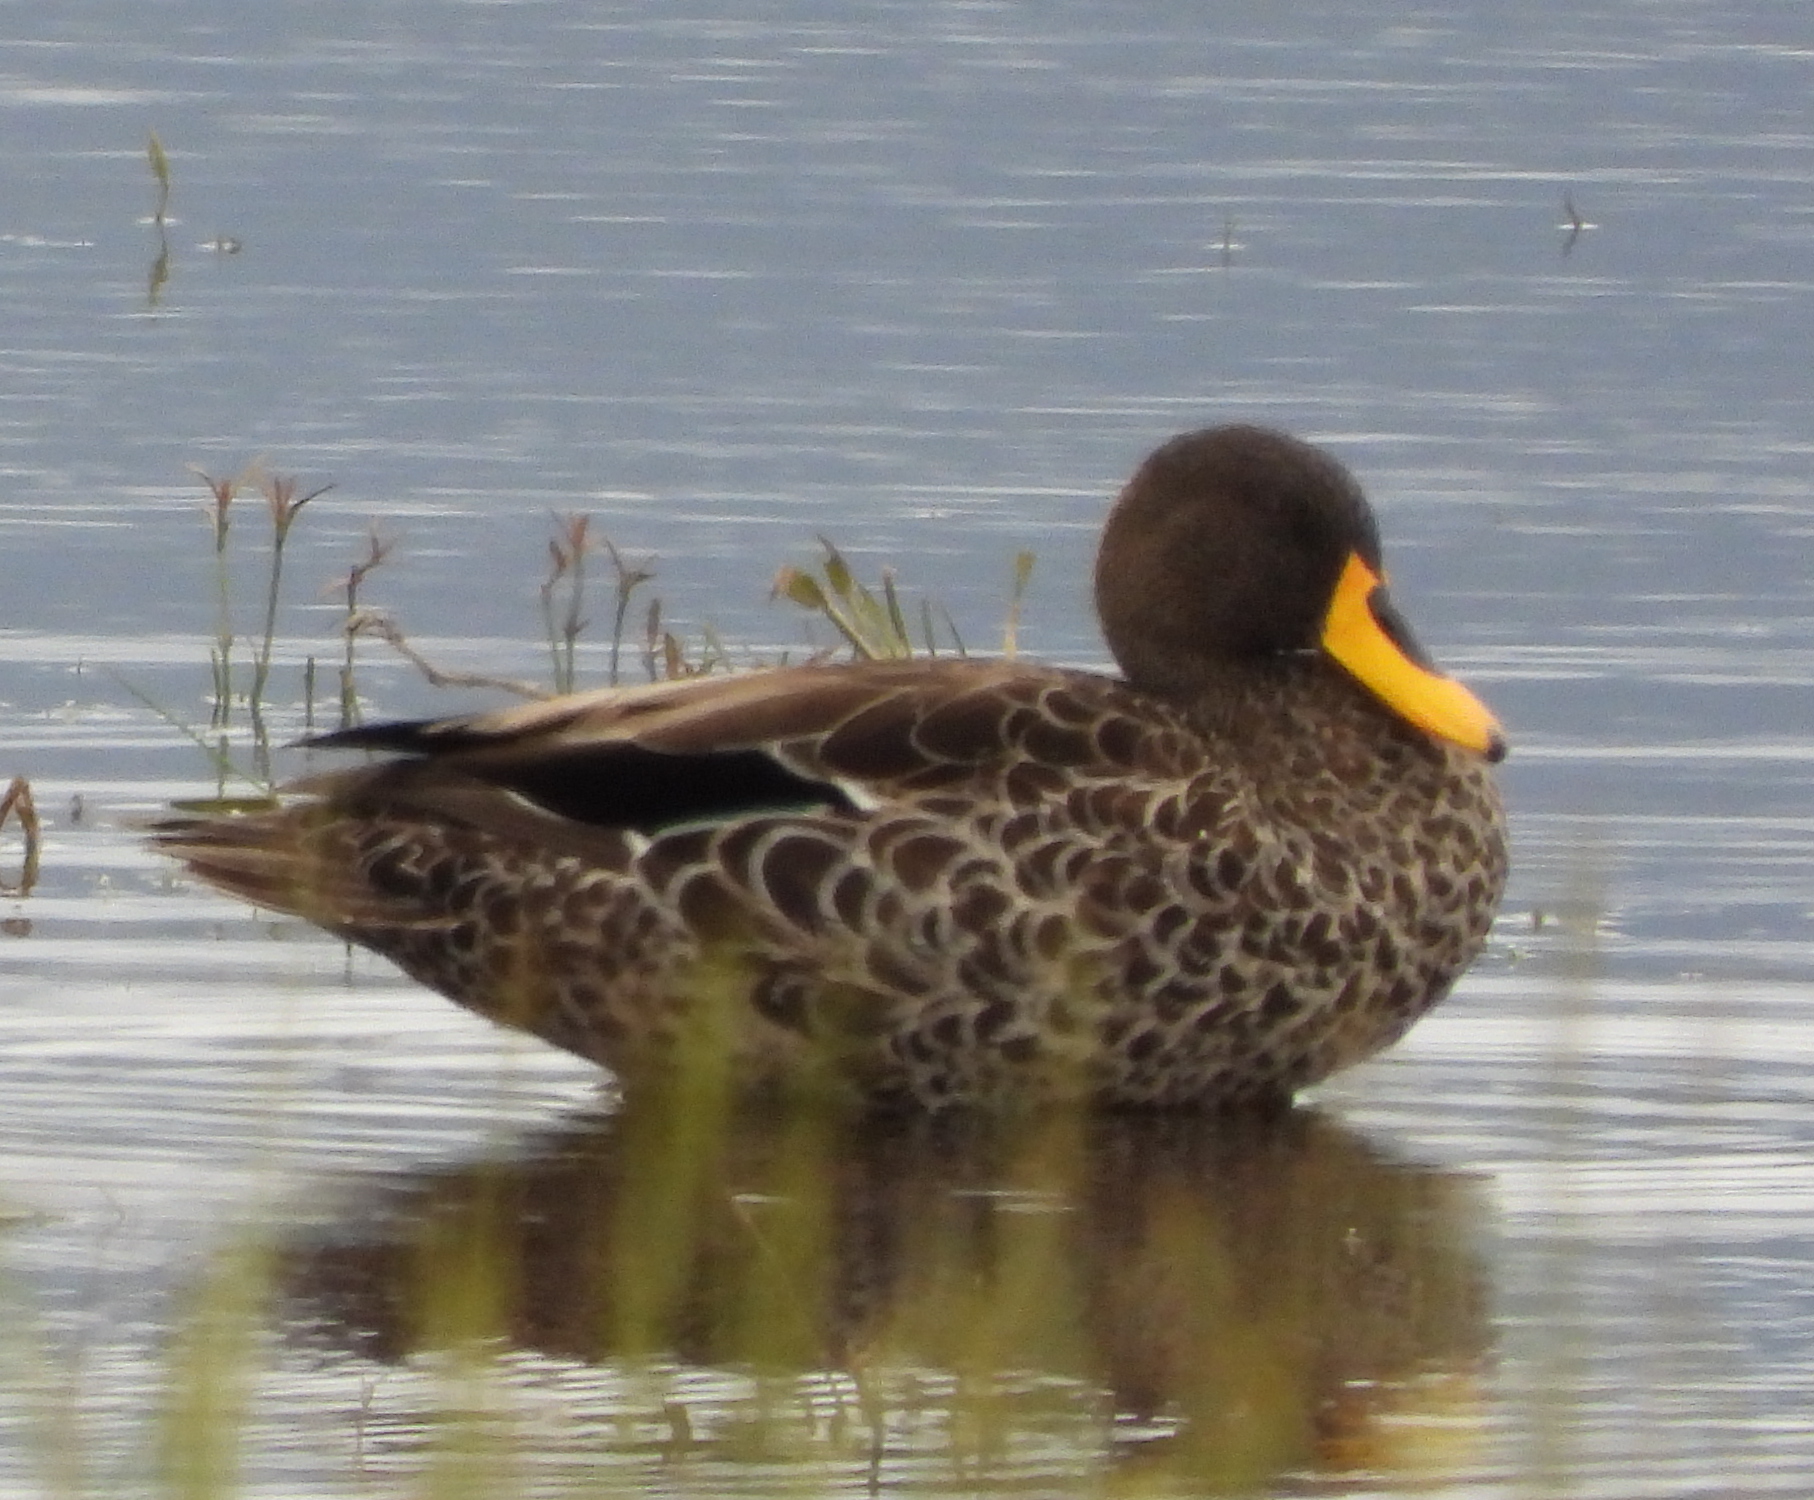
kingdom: Animalia
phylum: Chordata
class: Aves
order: Anseriformes
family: Anatidae
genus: Anas
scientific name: Anas undulata
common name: Yellow-billed duck
